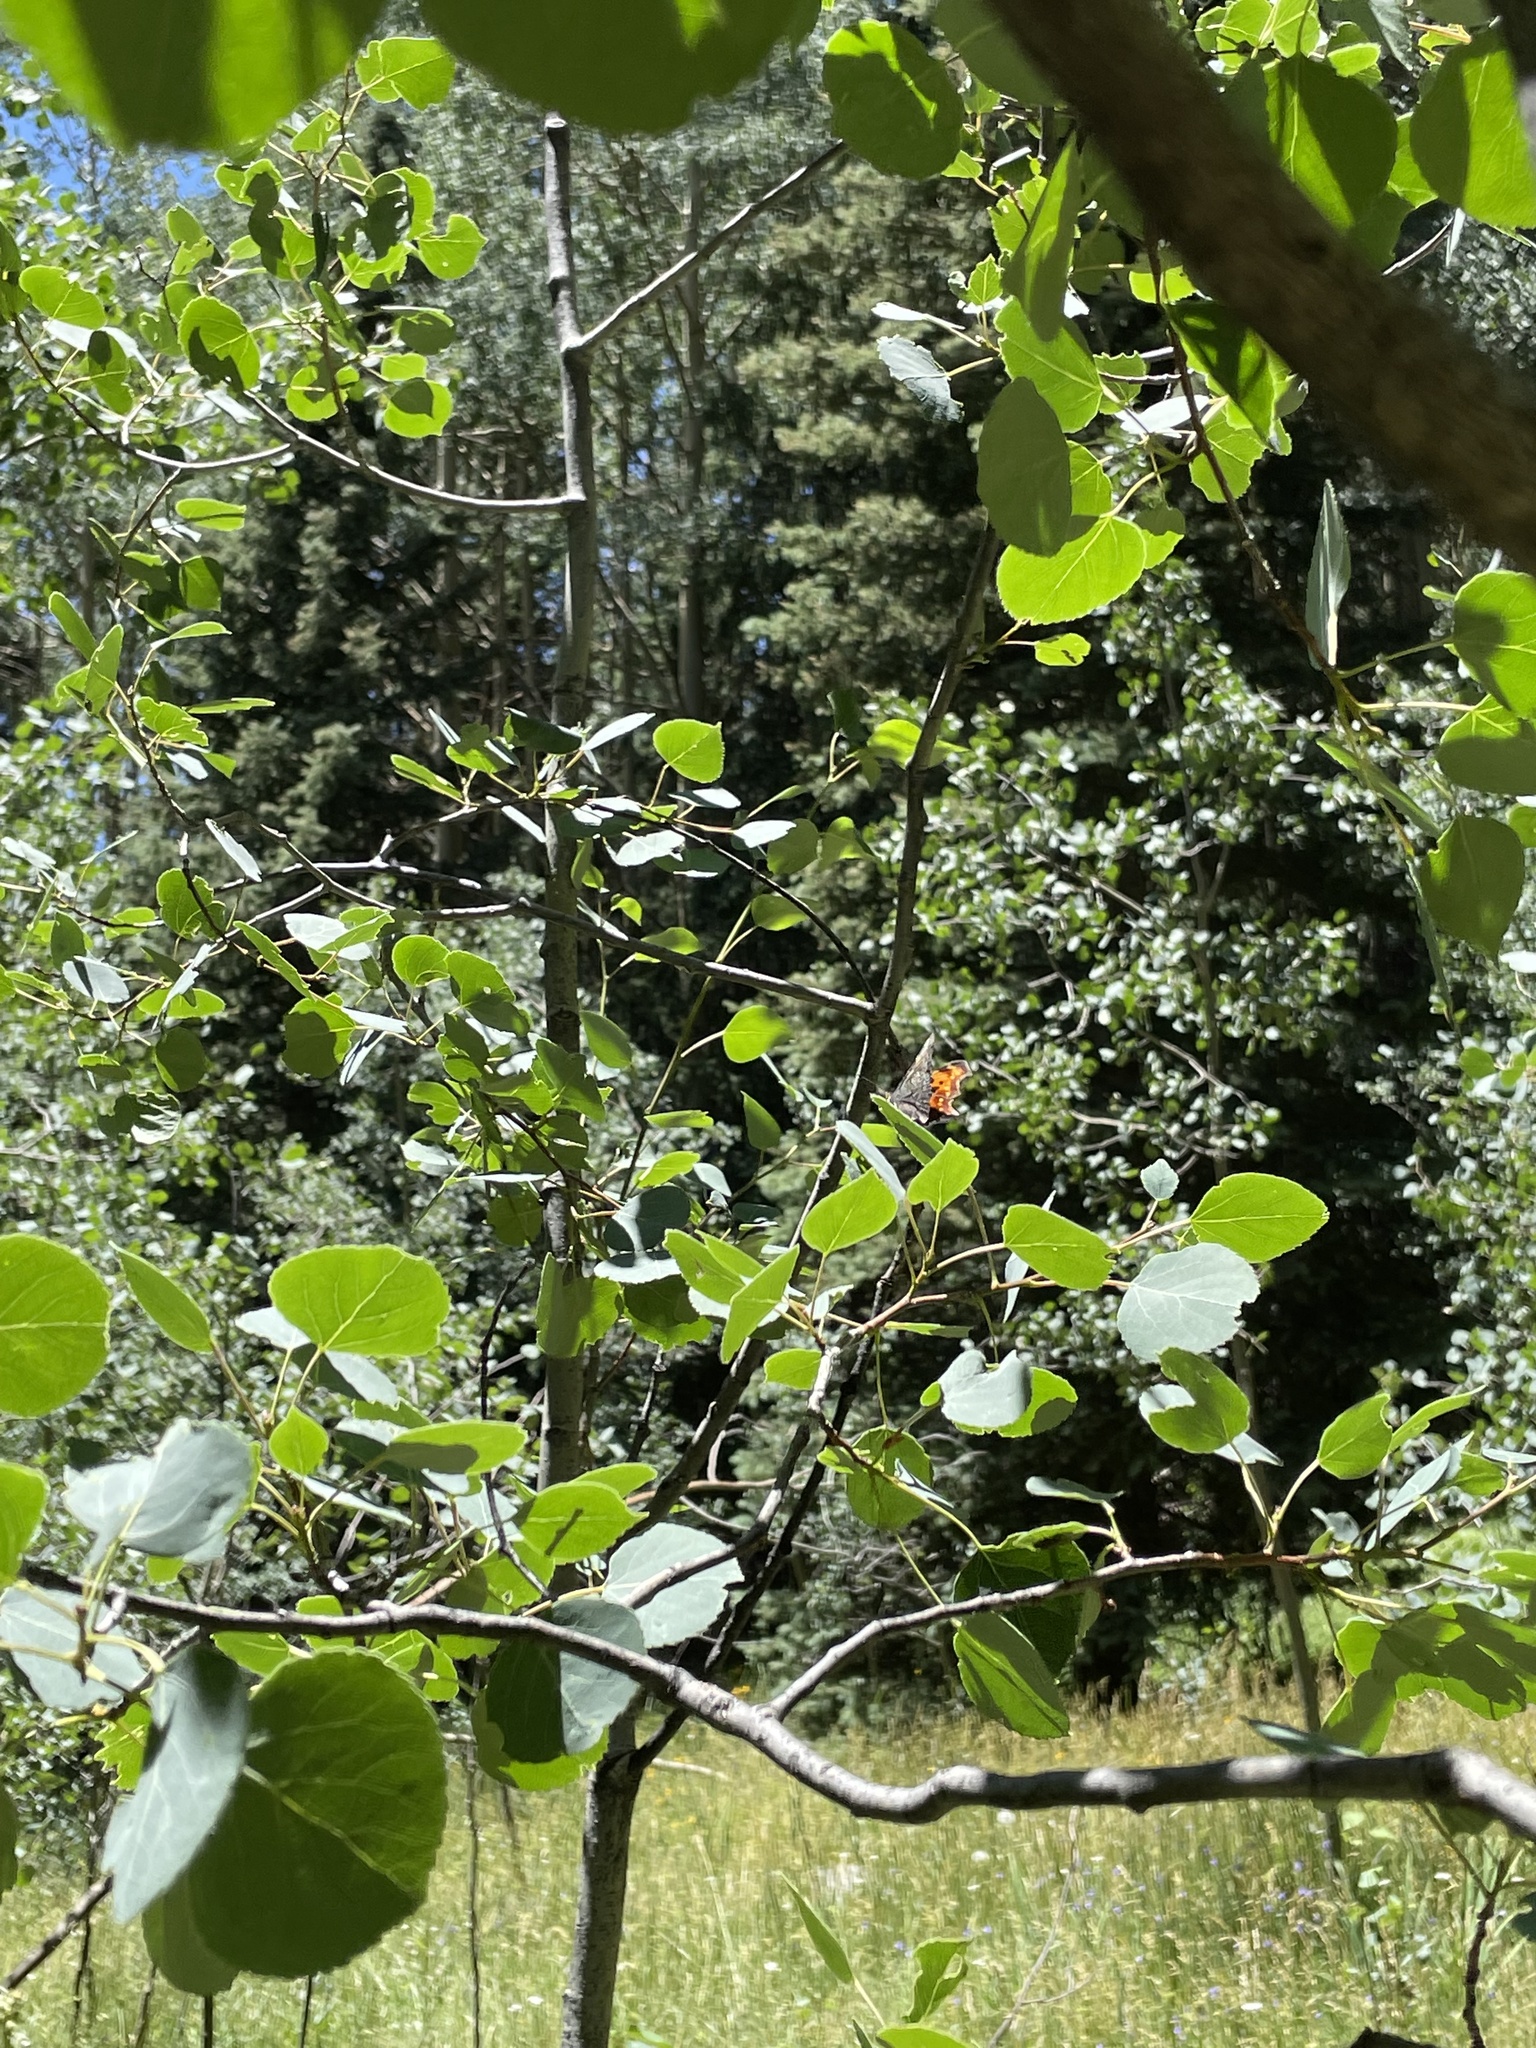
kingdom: Animalia
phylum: Arthropoda
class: Insecta
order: Lepidoptera
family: Nymphalidae
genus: Polygonia
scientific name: Polygonia faunus
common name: Green comma
